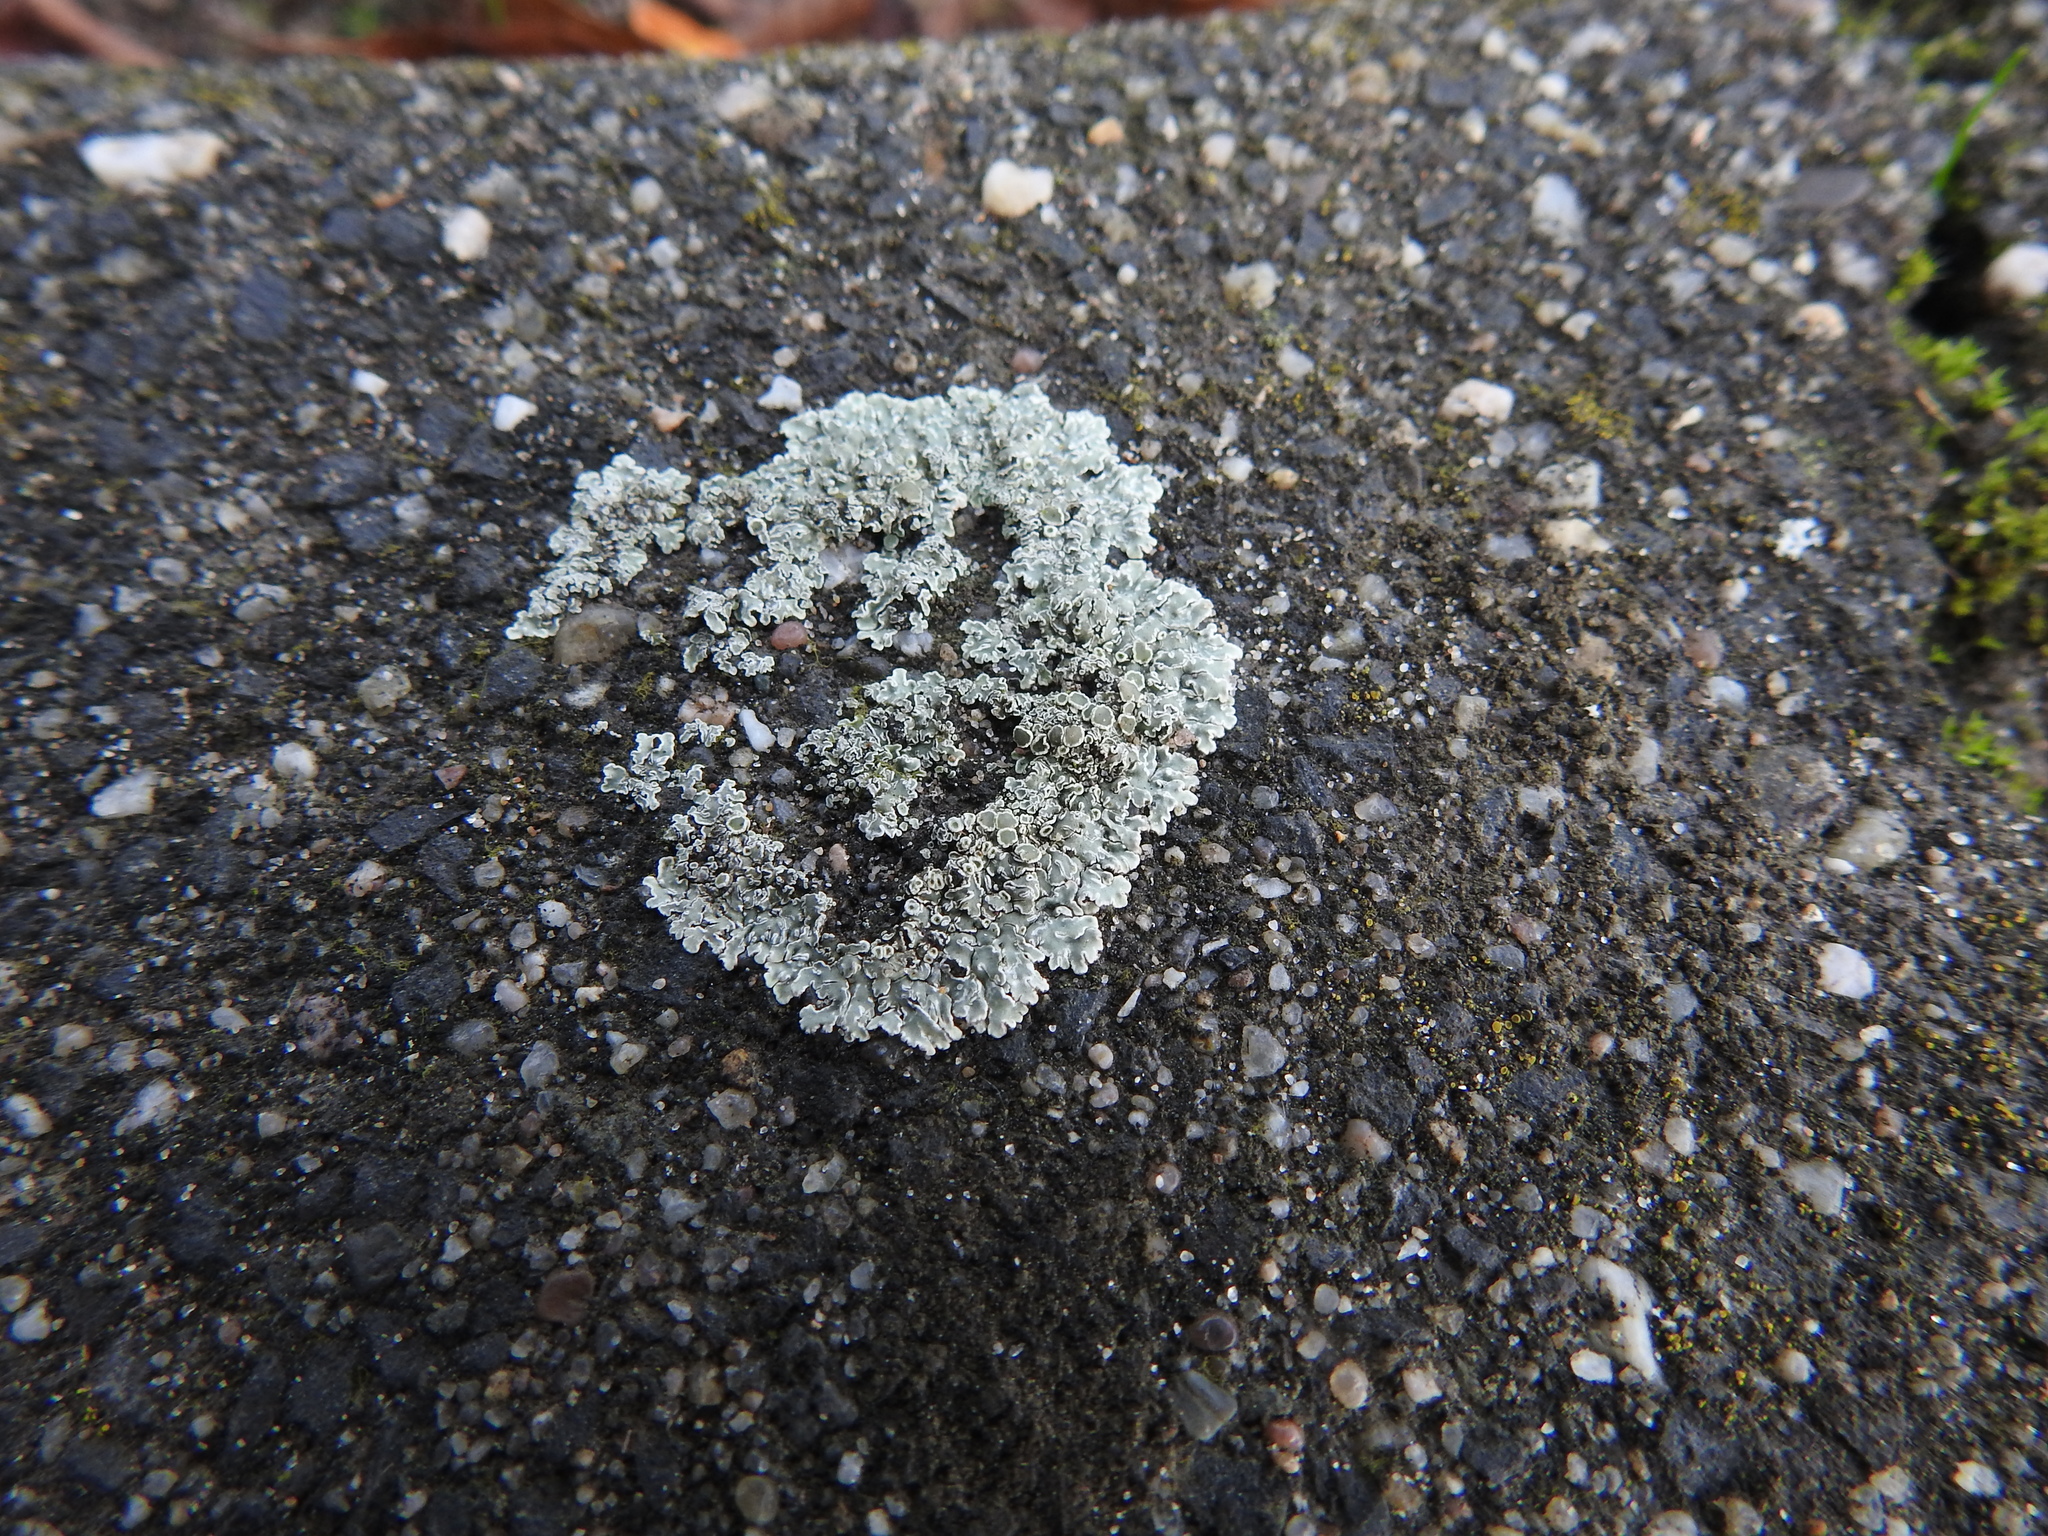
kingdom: Fungi
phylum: Ascomycota
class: Lecanoromycetes
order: Lecanorales
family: Lecanoraceae
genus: Protoparmeliopsis
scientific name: Protoparmeliopsis muralis
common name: Stonewall rim lichen
